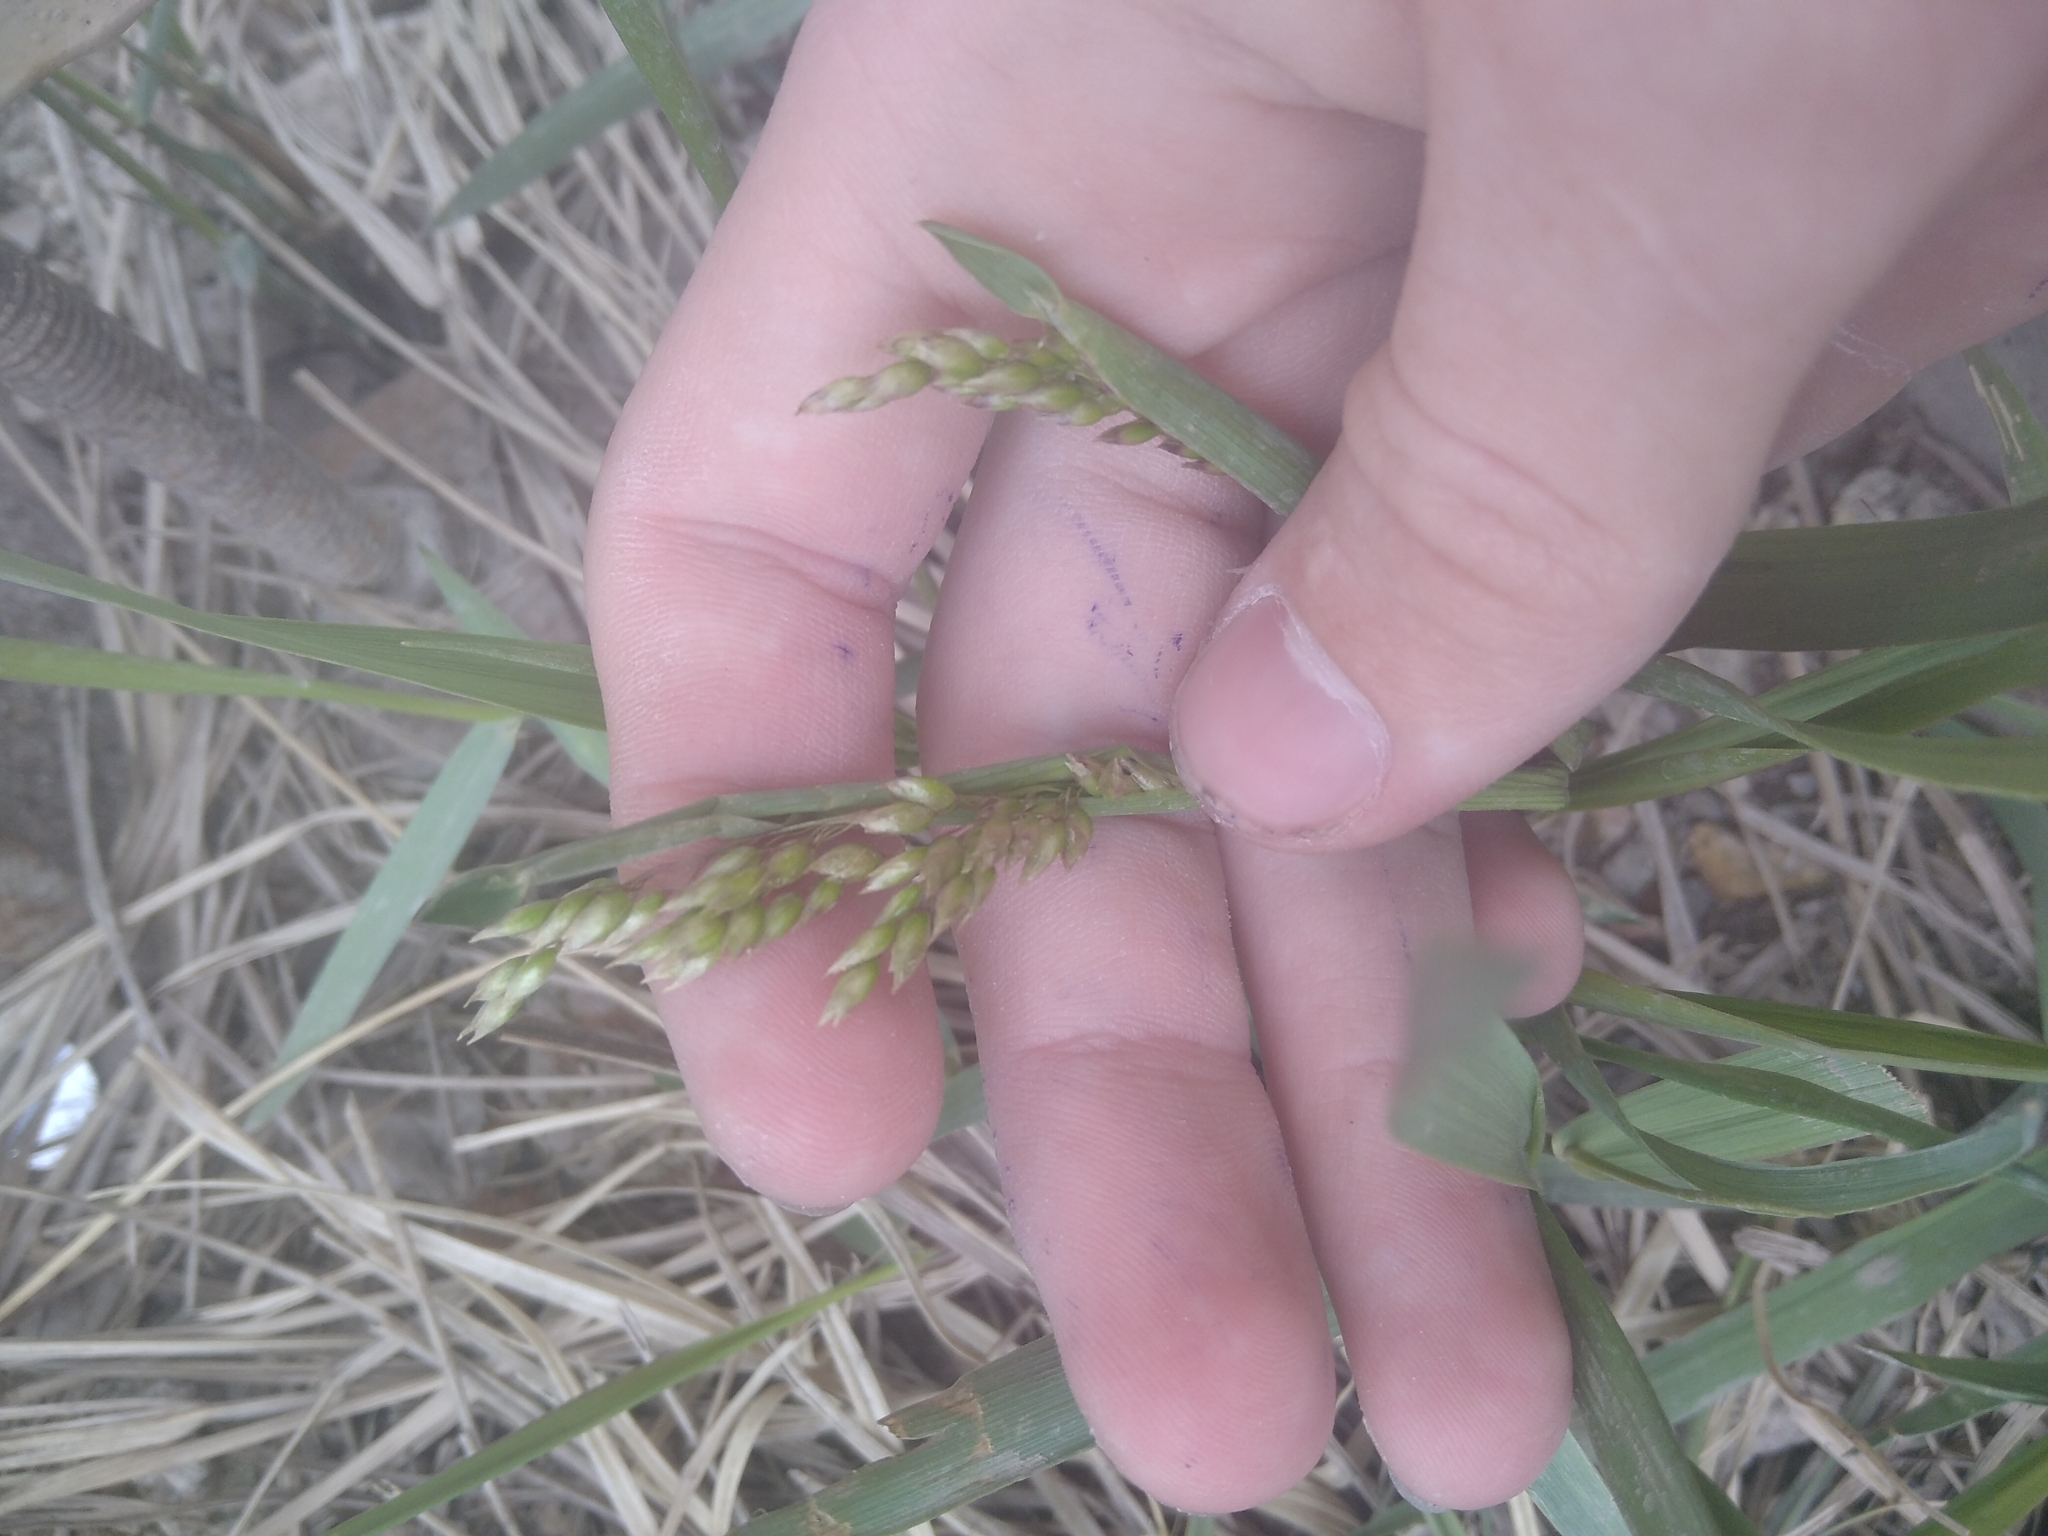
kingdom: Plantae
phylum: Tracheophyta
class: Liliopsida
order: Poales
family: Poaceae
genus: Anthoxanthum
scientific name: Anthoxanthum nitens
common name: Holy grass
